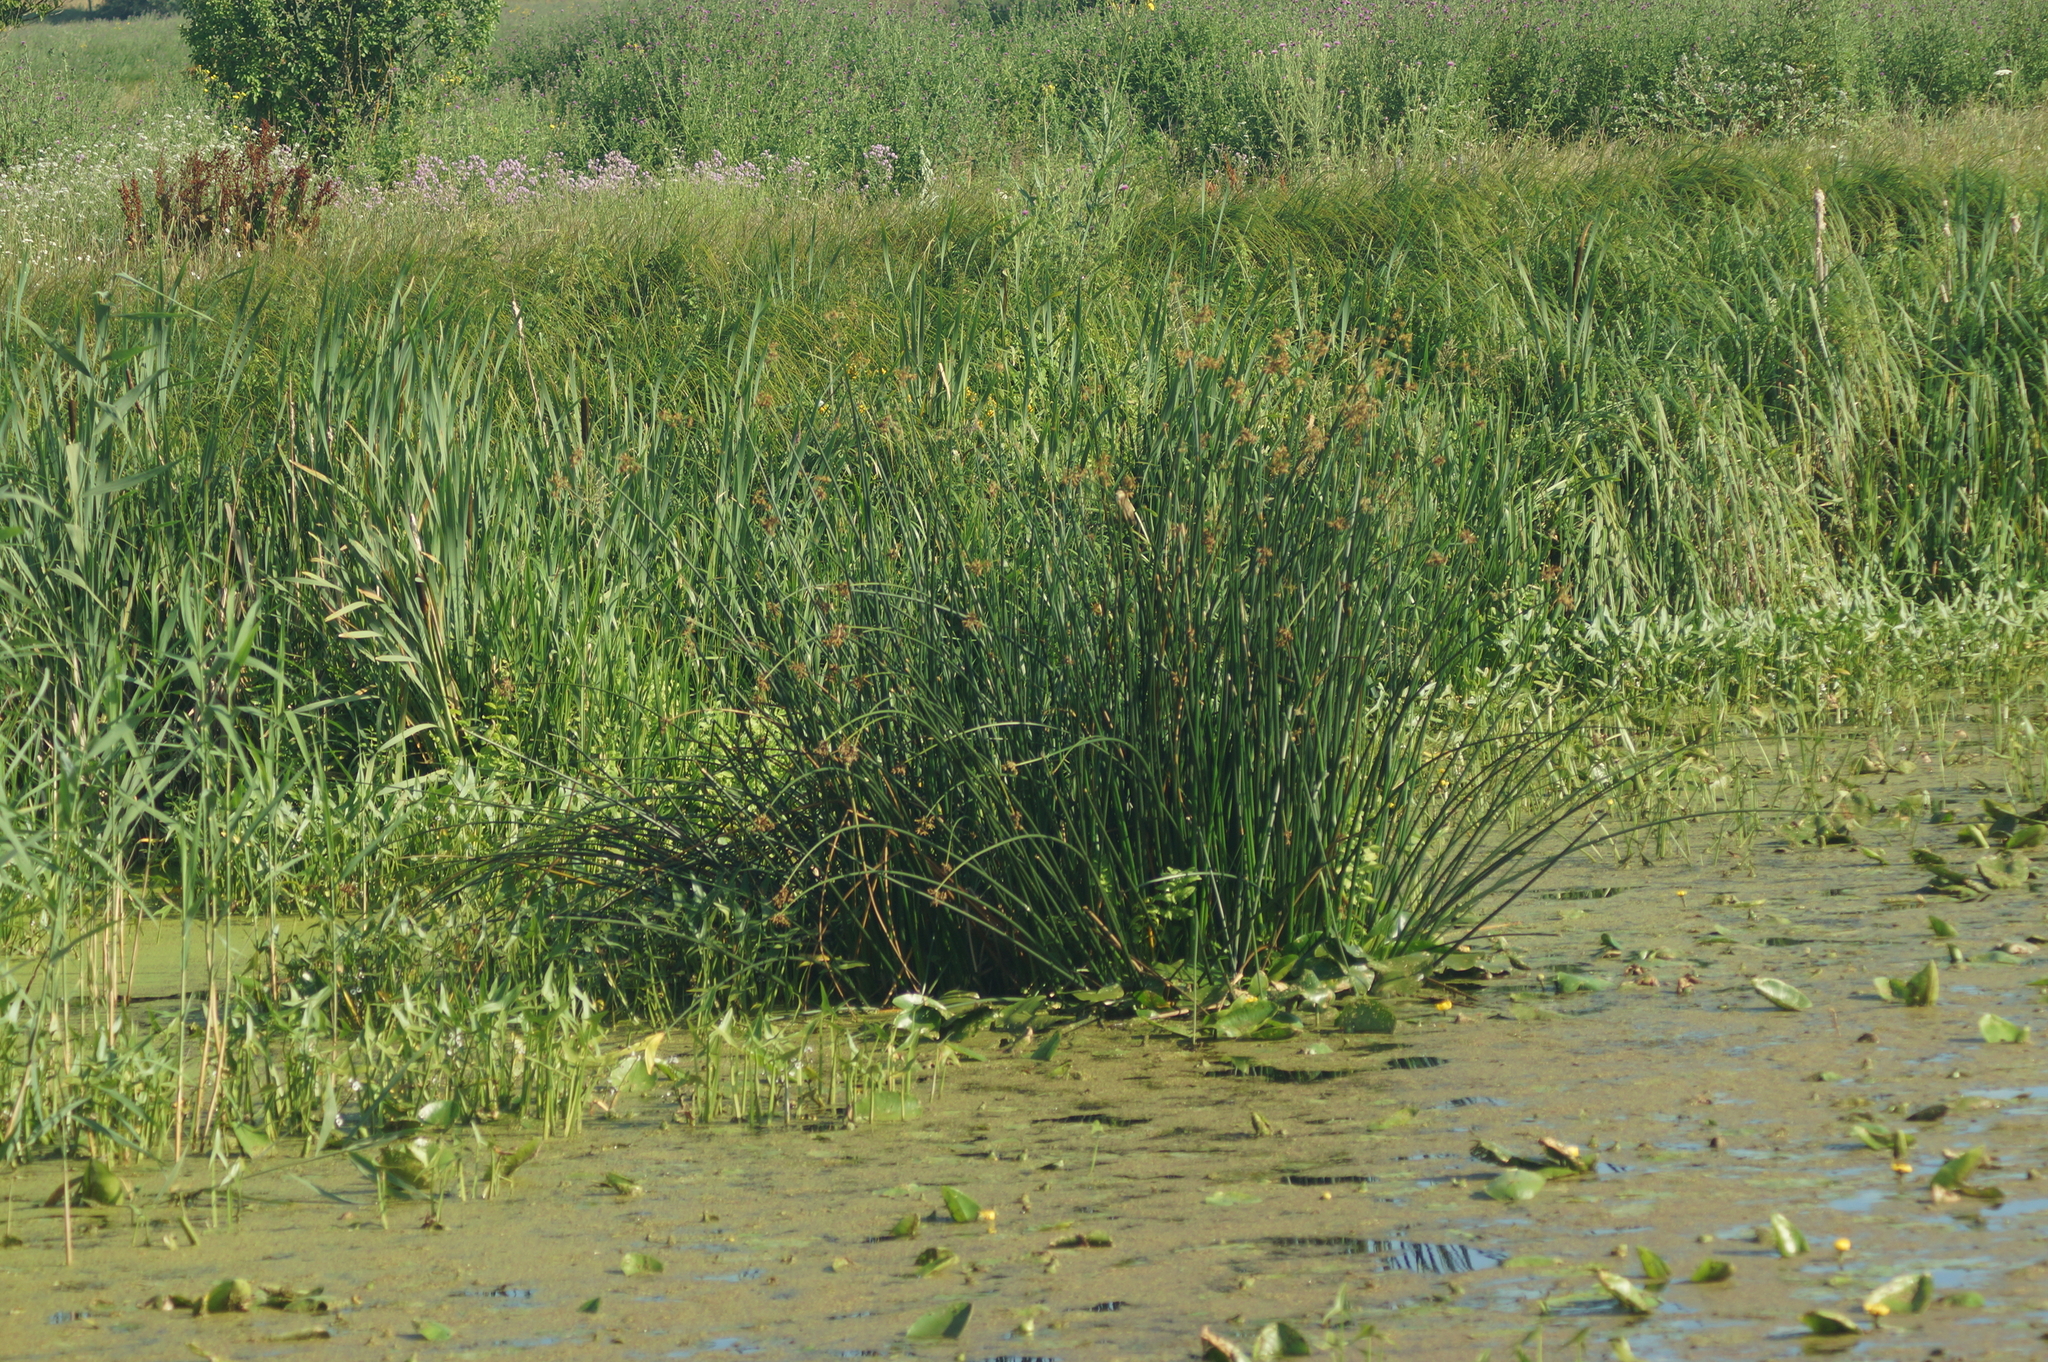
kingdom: Plantae
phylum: Tracheophyta
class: Liliopsida
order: Poales
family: Cyperaceae
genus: Schoenoplectus
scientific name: Schoenoplectus lacustris
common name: Common club-rush
